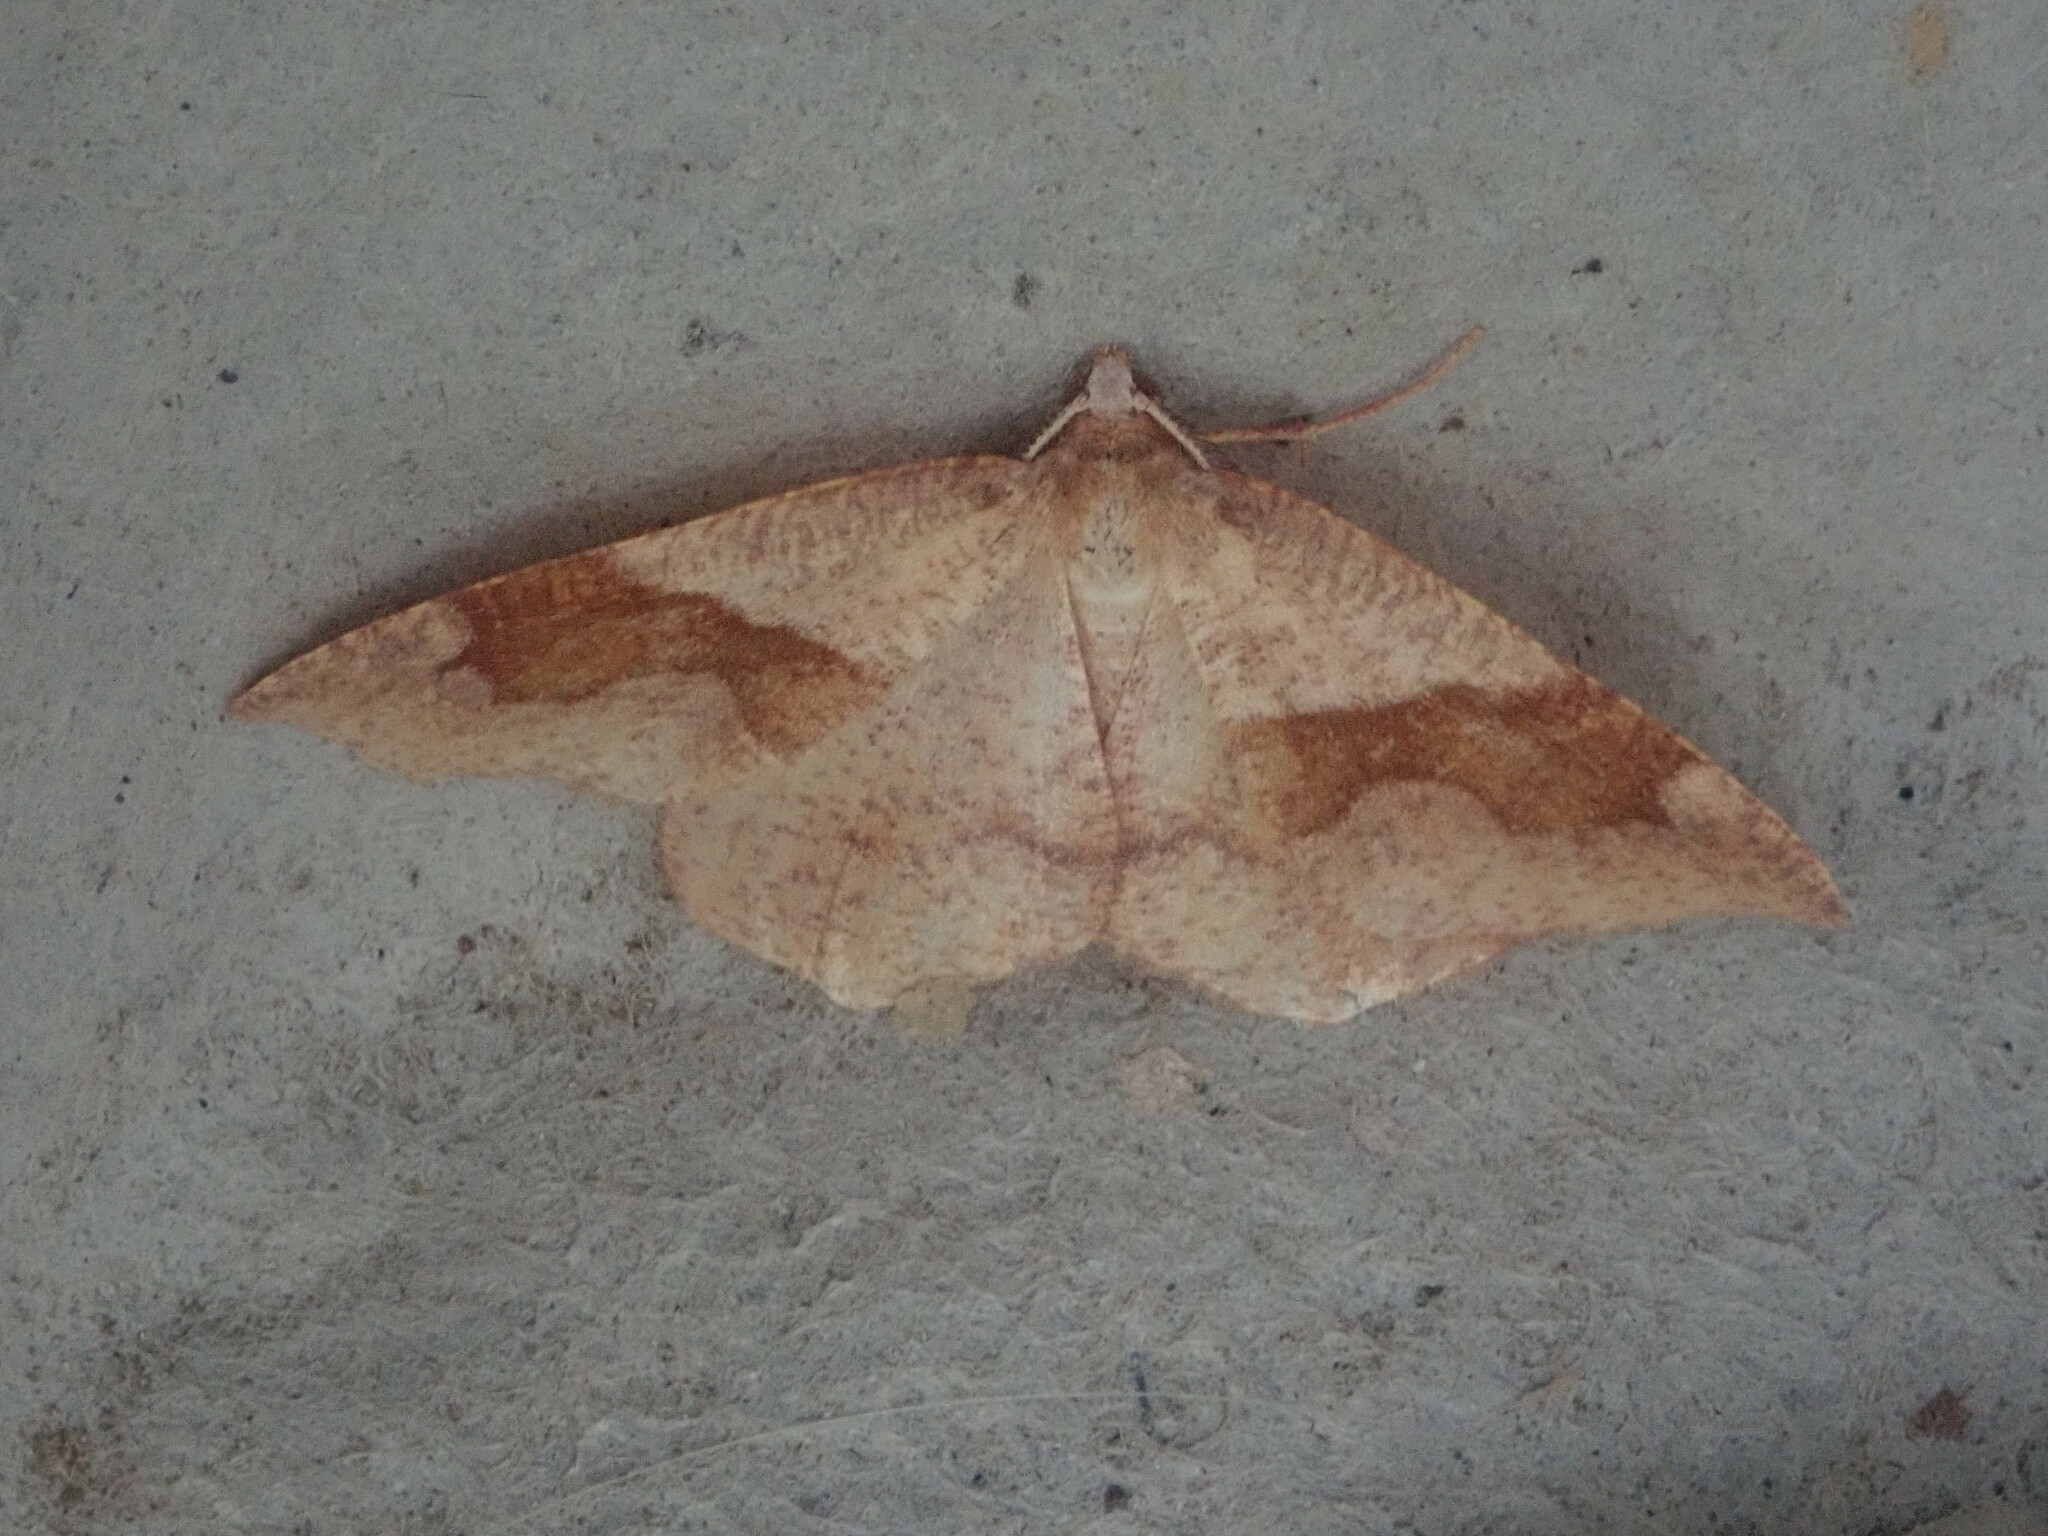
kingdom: Animalia
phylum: Arthropoda
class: Insecta
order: Lepidoptera
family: Geometridae
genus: Plagodis
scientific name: Plagodis pulveraria
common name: Barred umber
